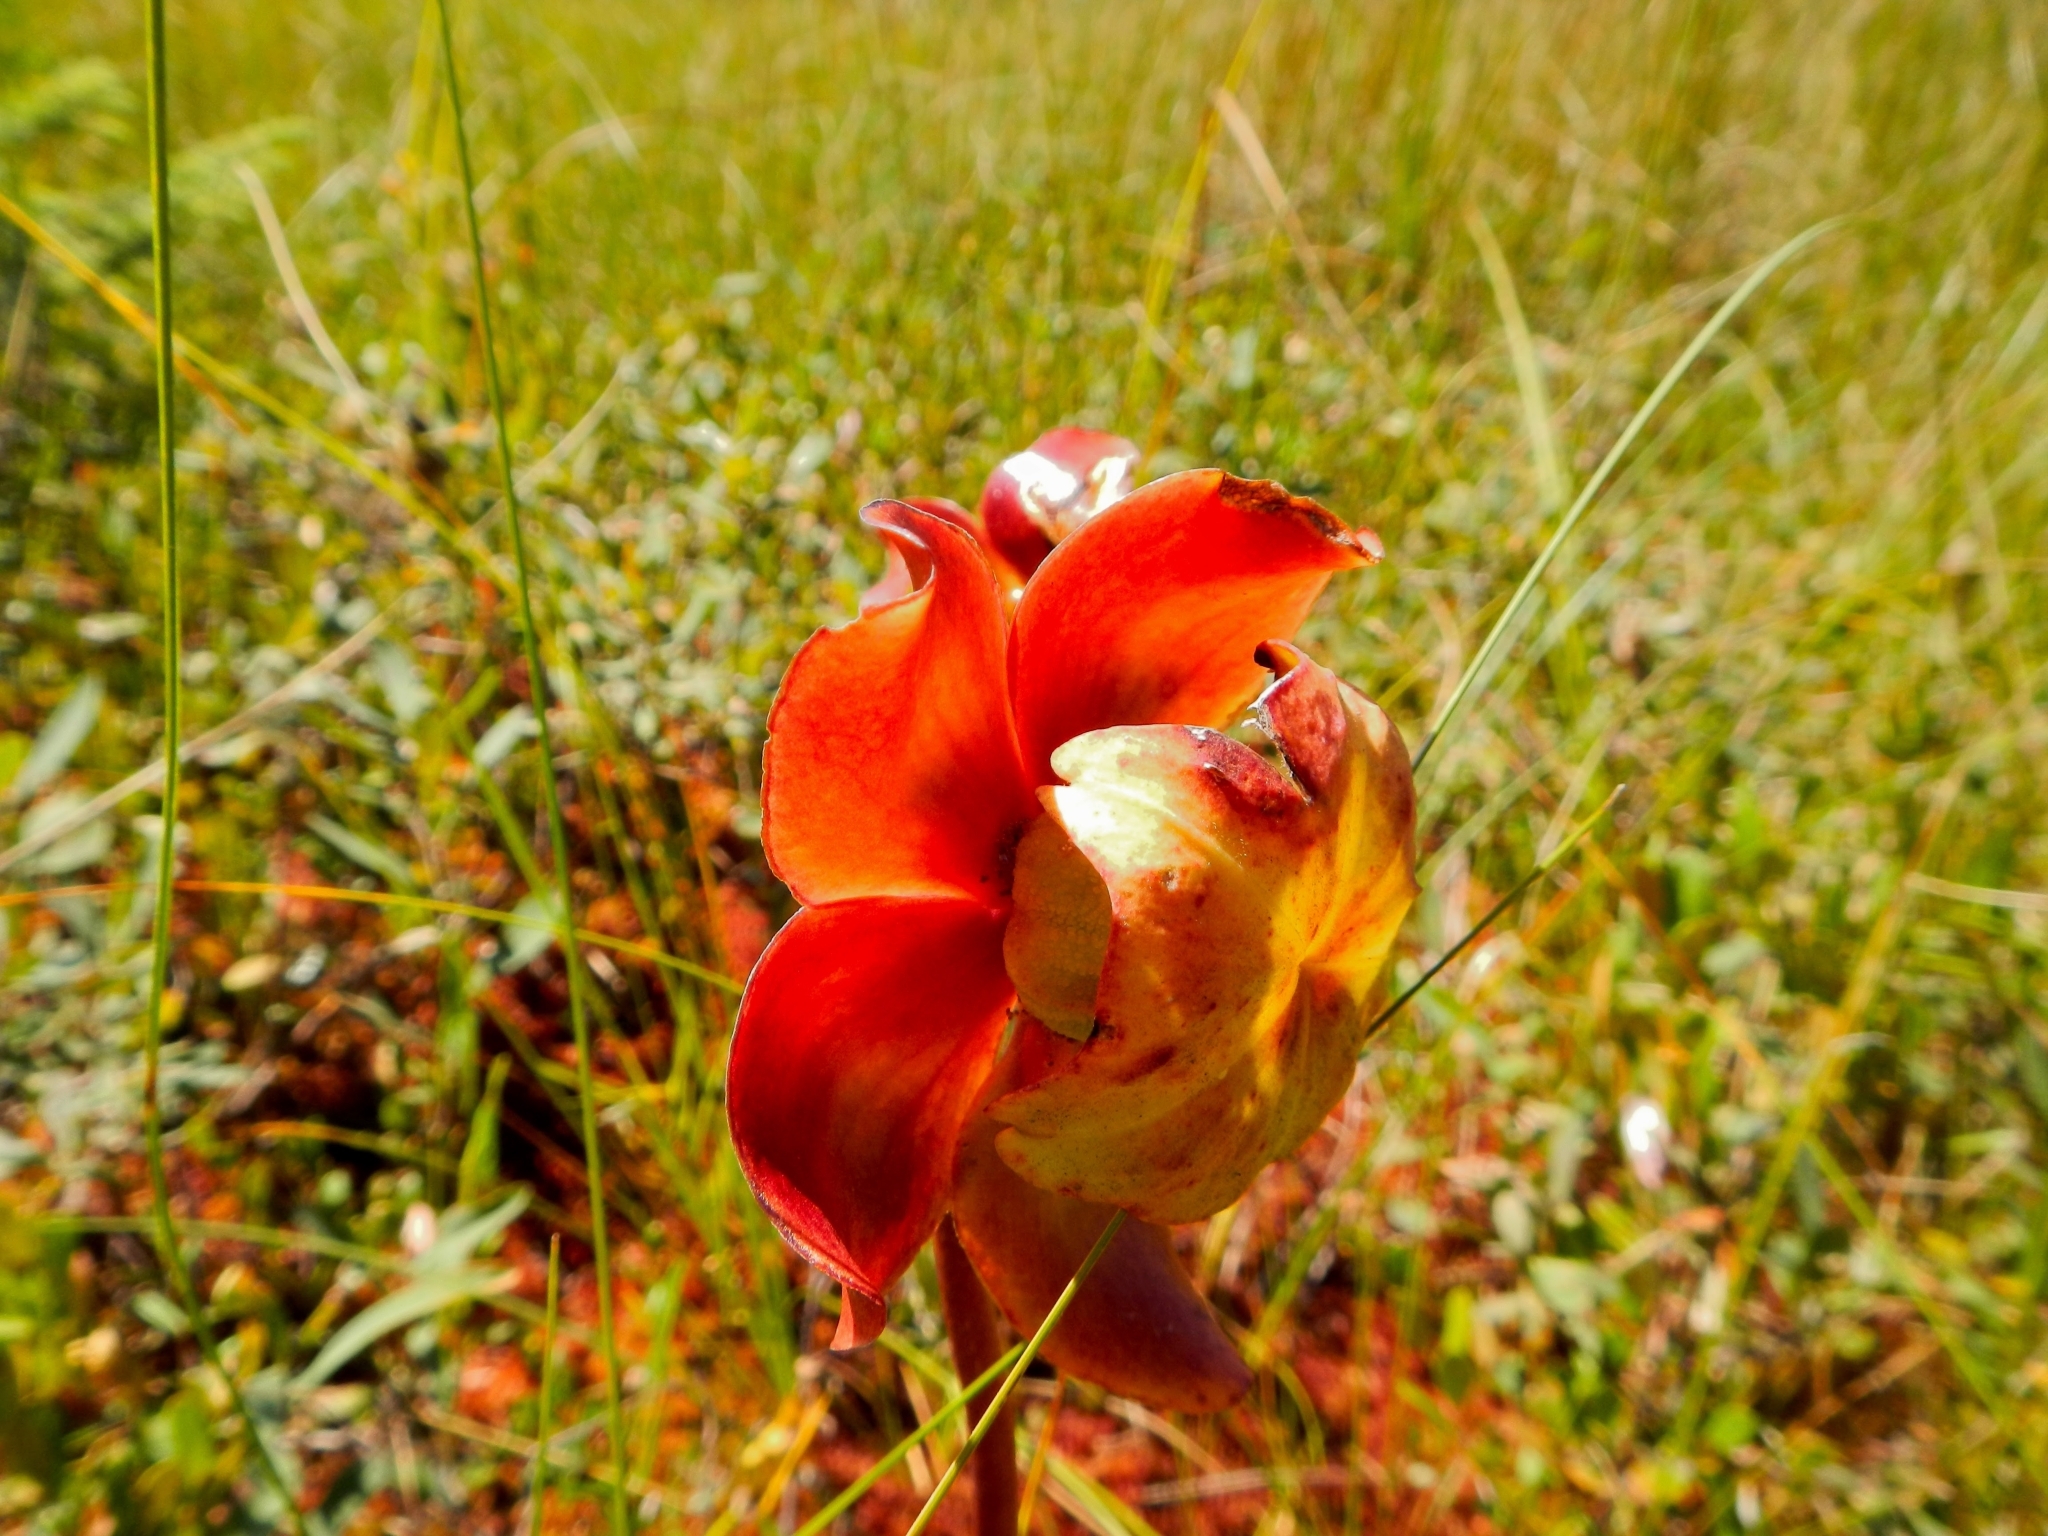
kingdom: Plantae
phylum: Tracheophyta
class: Magnoliopsida
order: Ericales
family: Sarraceniaceae
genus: Sarracenia
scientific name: Sarracenia purpurea
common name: Pitcherplant
